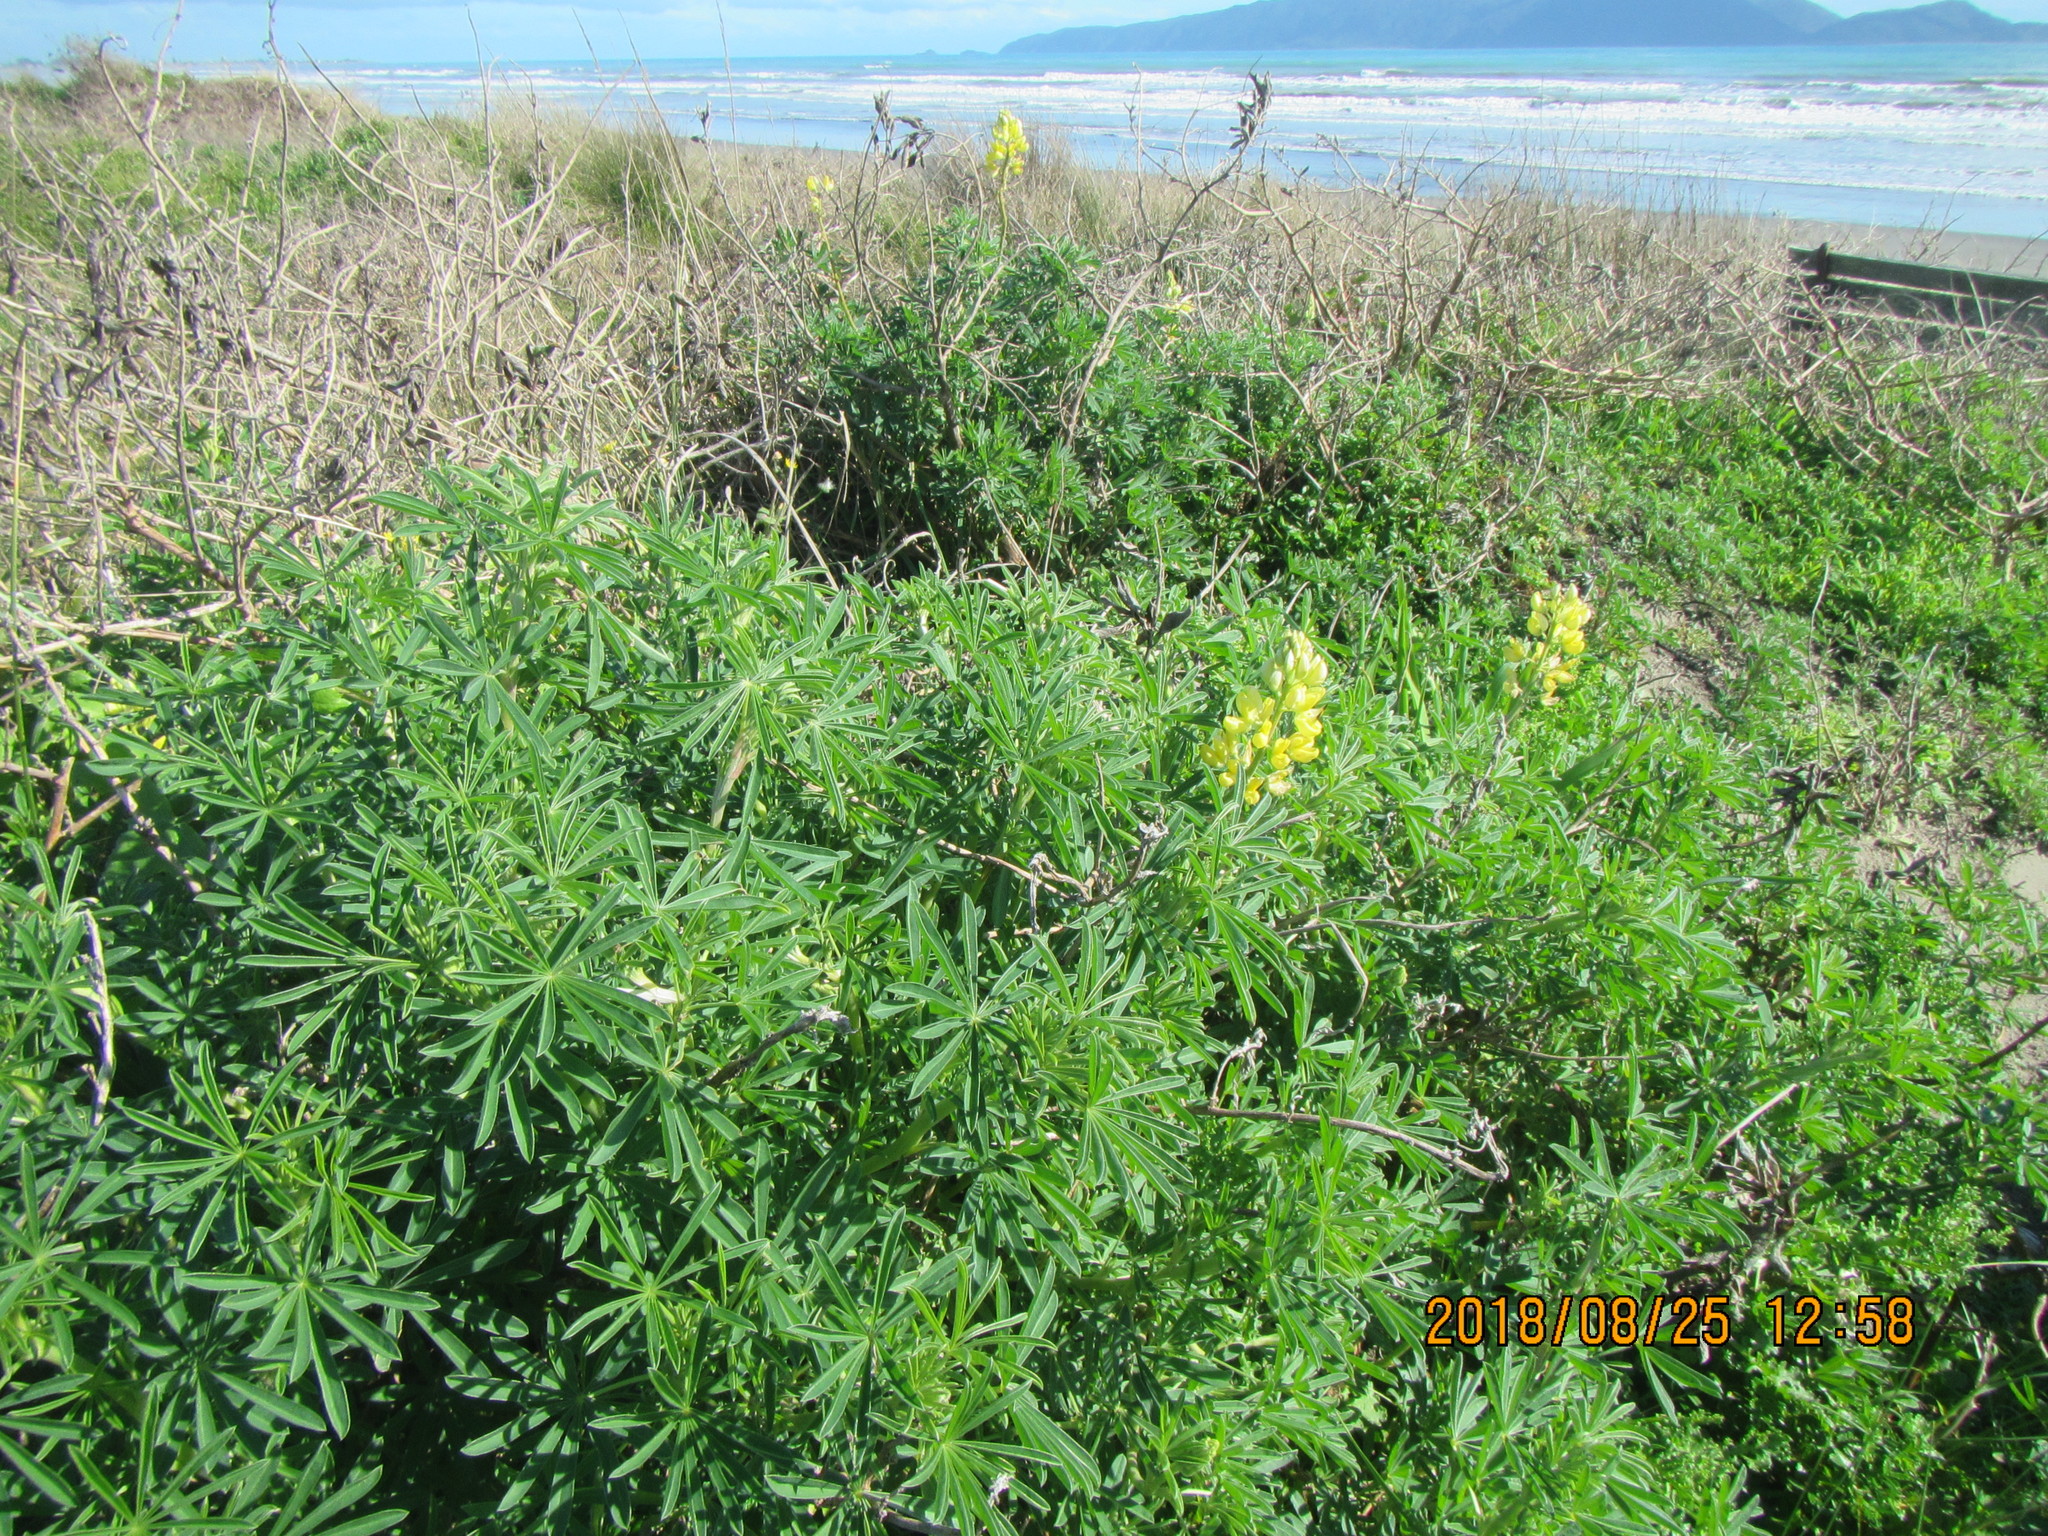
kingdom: Plantae
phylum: Tracheophyta
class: Magnoliopsida
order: Fabales
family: Fabaceae
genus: Lupinus
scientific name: Lupinus arboreus
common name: Yellow bush lupine
